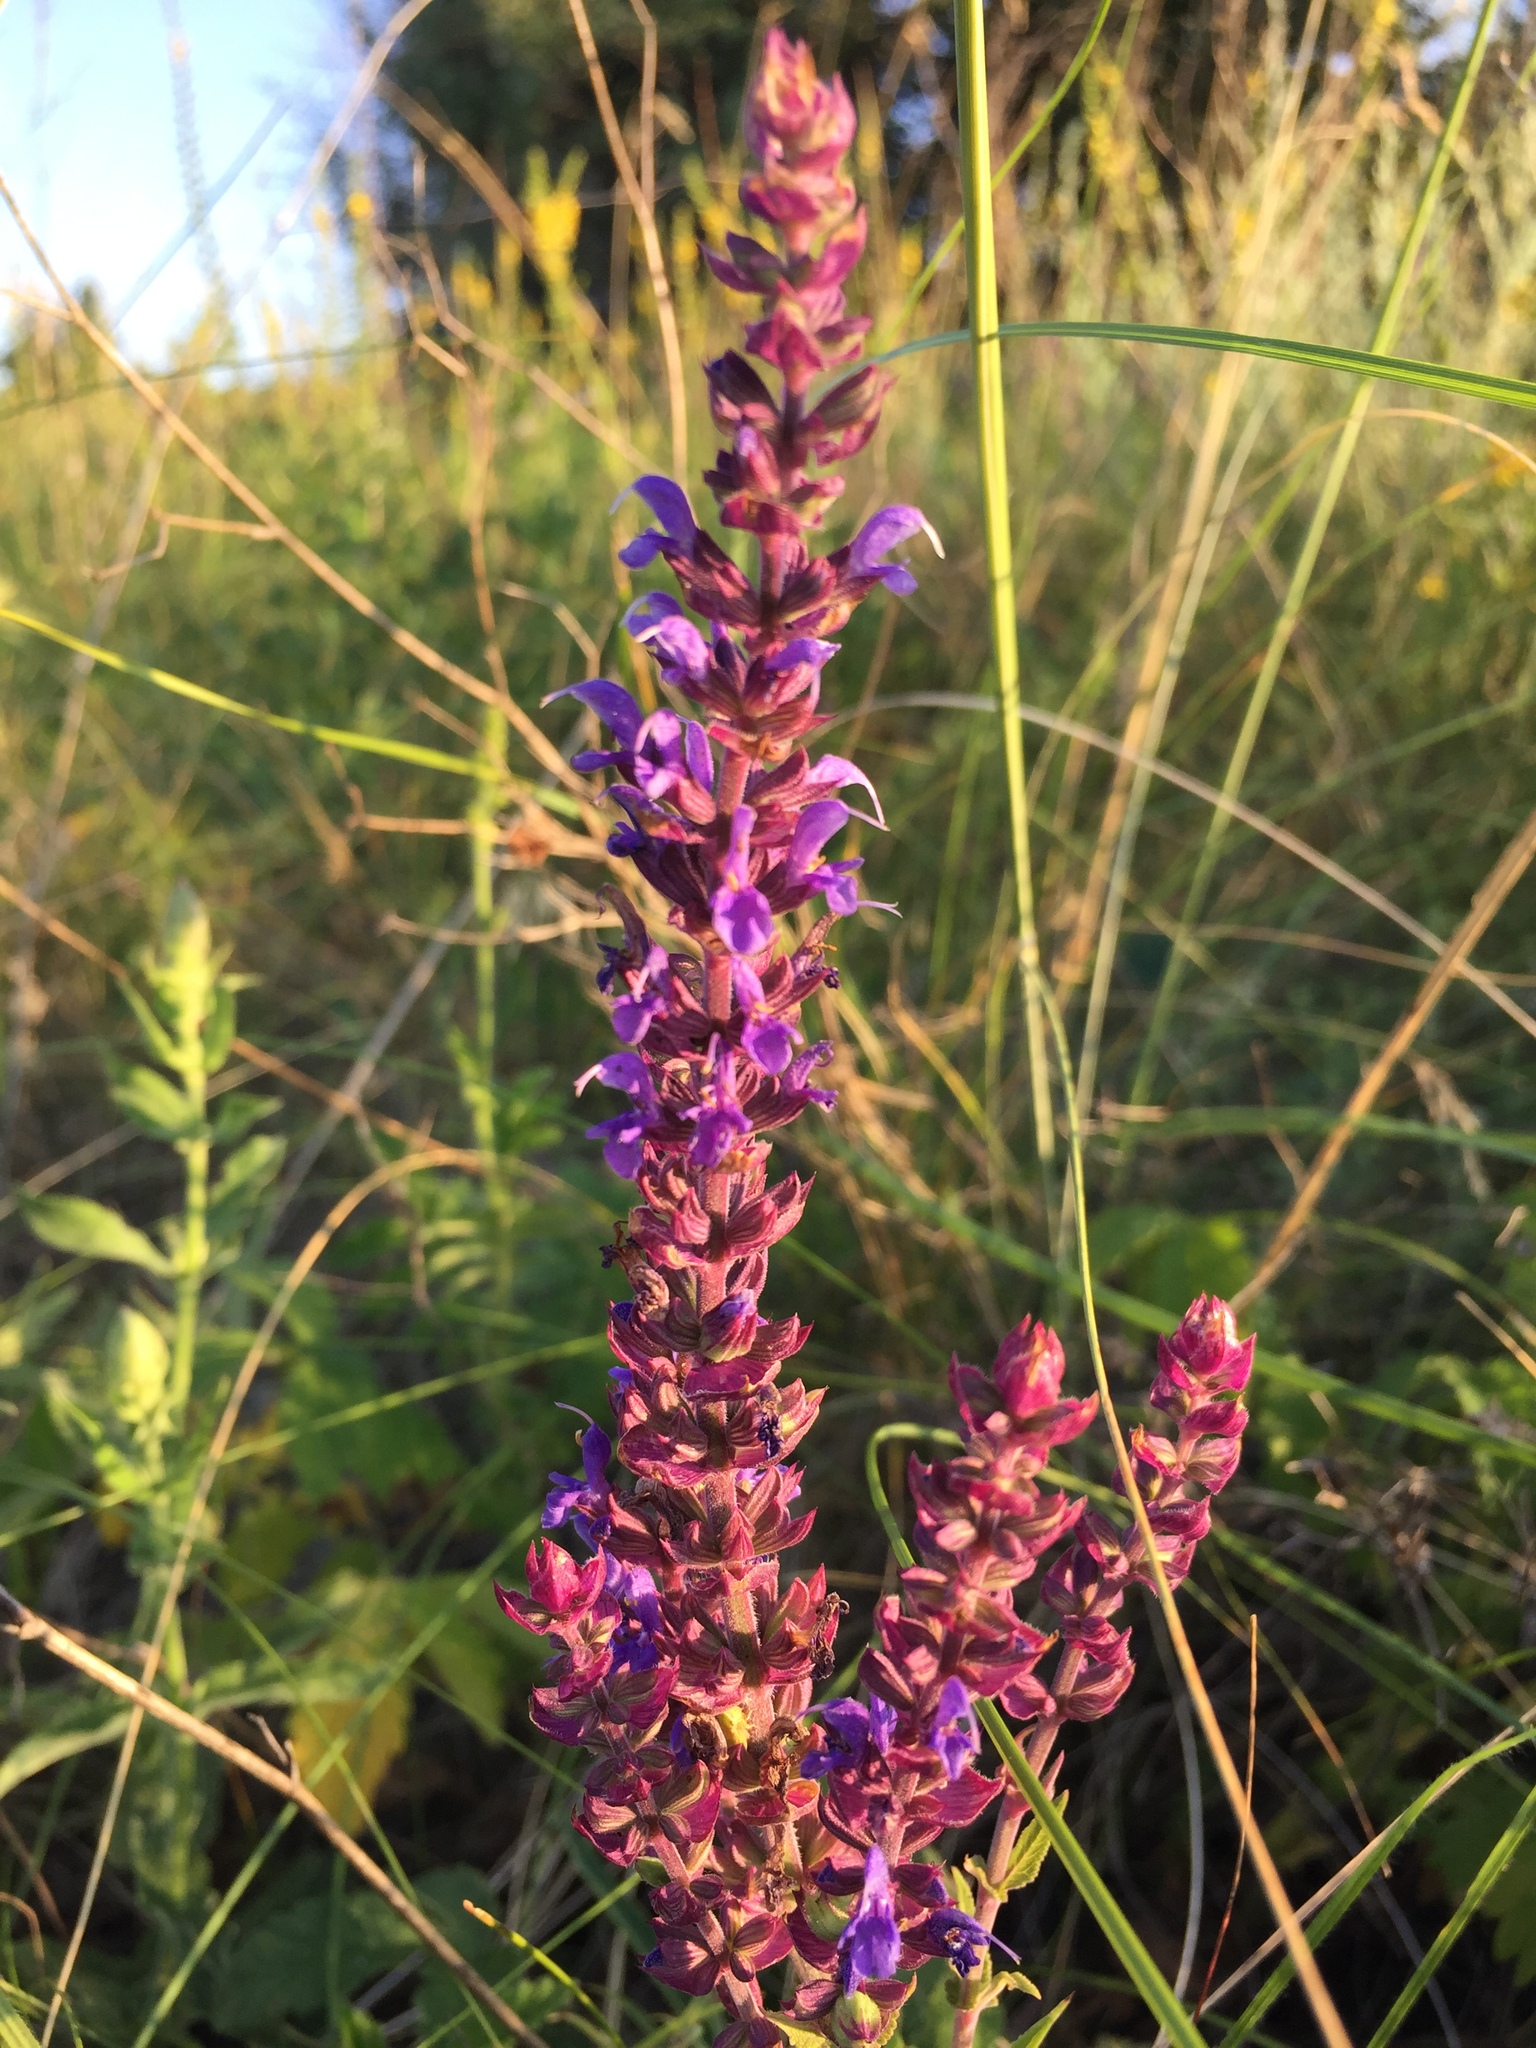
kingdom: Plantae
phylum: Tracheophyta
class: Magnoliopsida
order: Lamiales
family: Lamiaceae
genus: Salvia
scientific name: Salvia nemorosa
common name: Balkan clary
